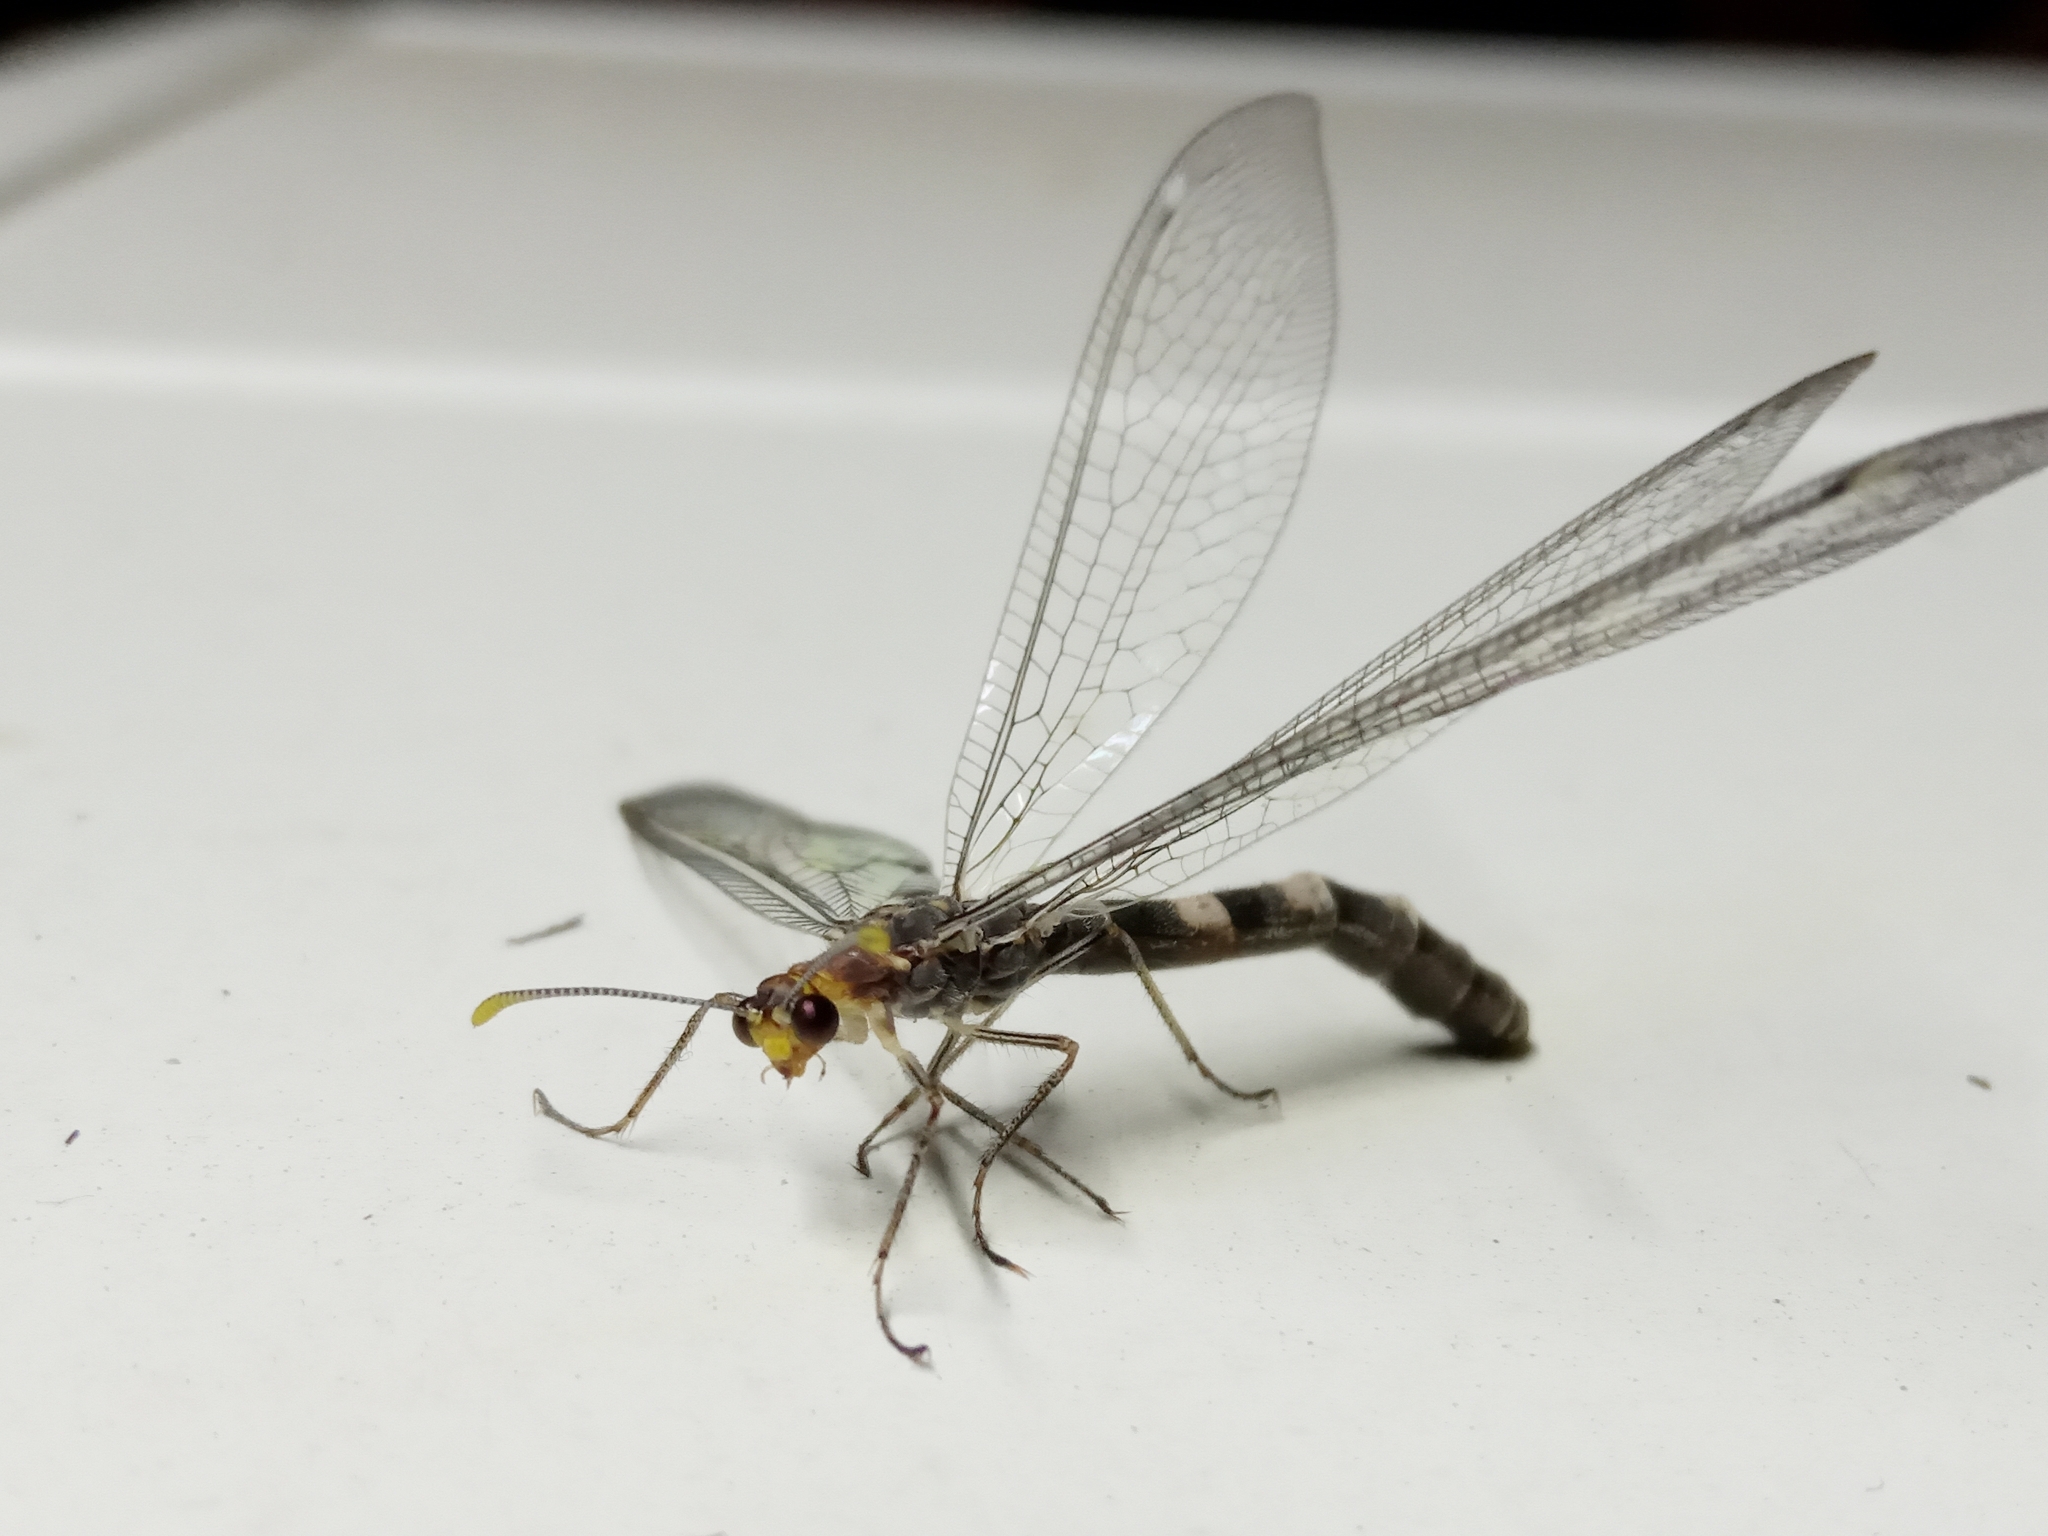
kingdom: Animalia
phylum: Arthropoda
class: Insecta
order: Neuroptera
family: Myrmeleontidae
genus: Megistopus
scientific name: Megistopus flavicornis
